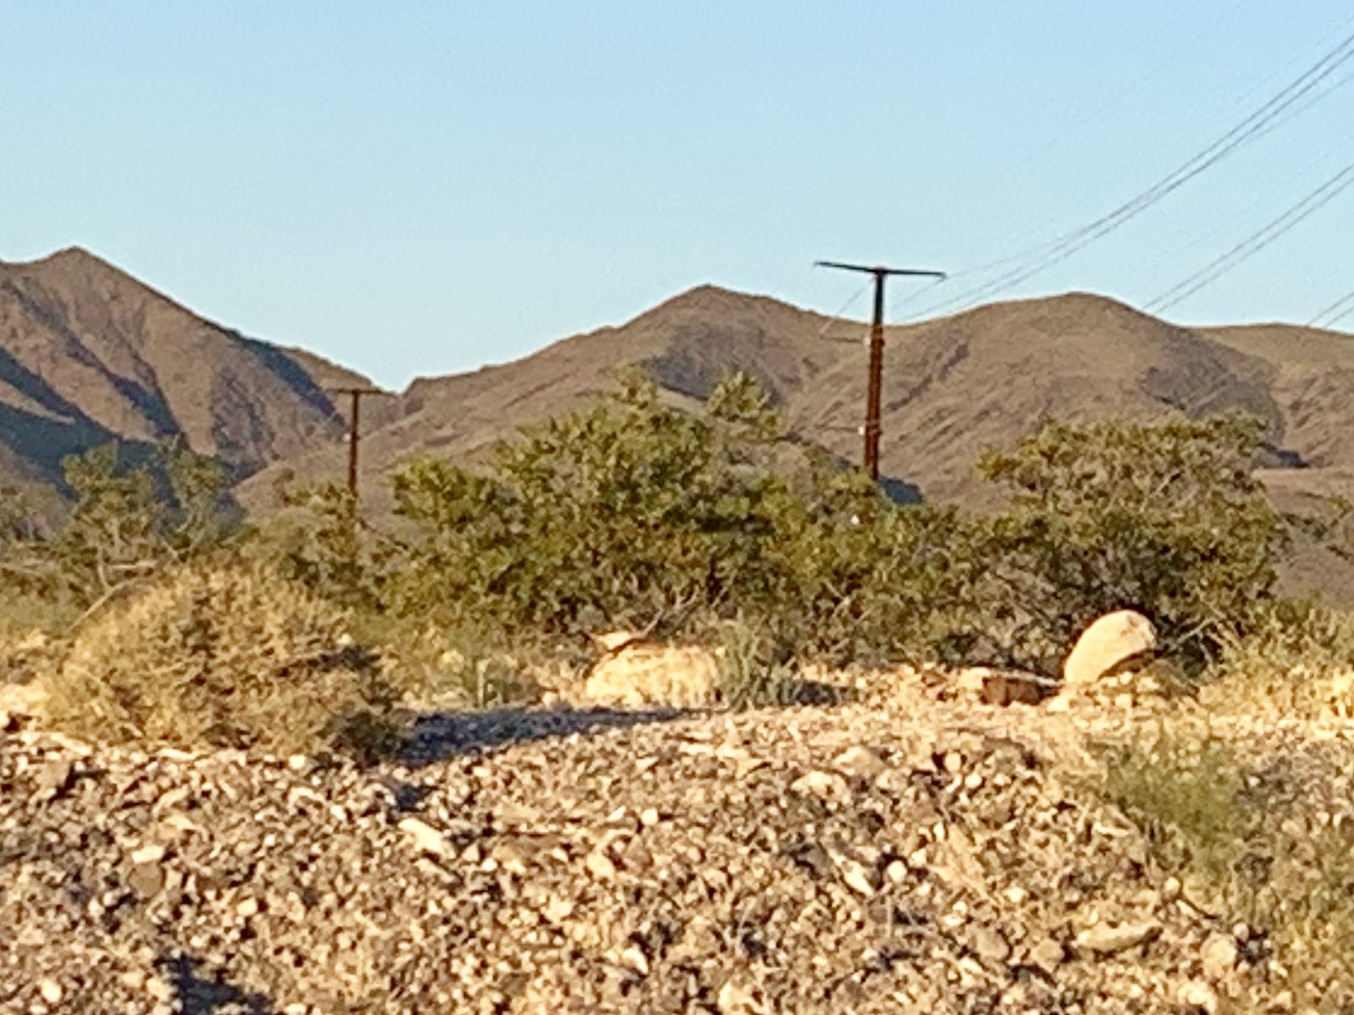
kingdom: Plantae
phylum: Tracheophyta
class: Magnoliopsida
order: Zygophyllales
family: Zygophyllaceae
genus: Larrea
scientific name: Larrea tridentata
